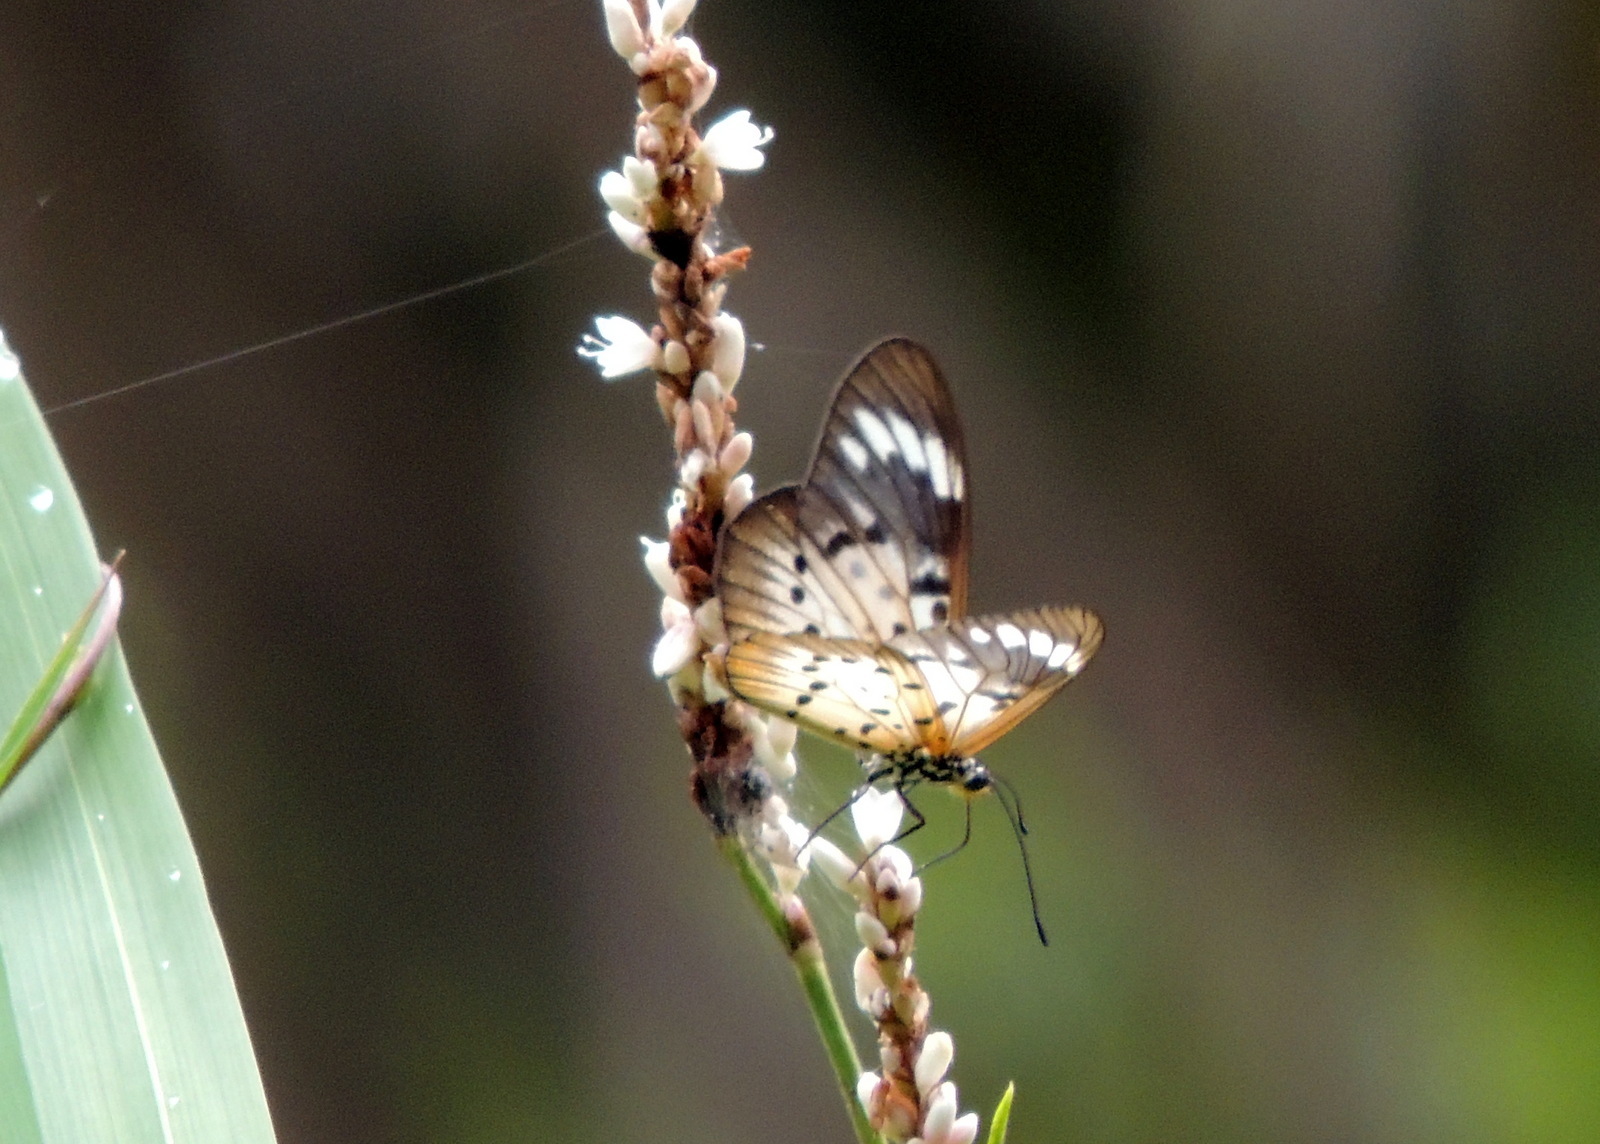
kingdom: Animalia
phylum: Arthropoda
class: Insecta
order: Lepidoptera
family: Nymphalidae
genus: Acraea
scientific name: Acraea Telchinia encedon
